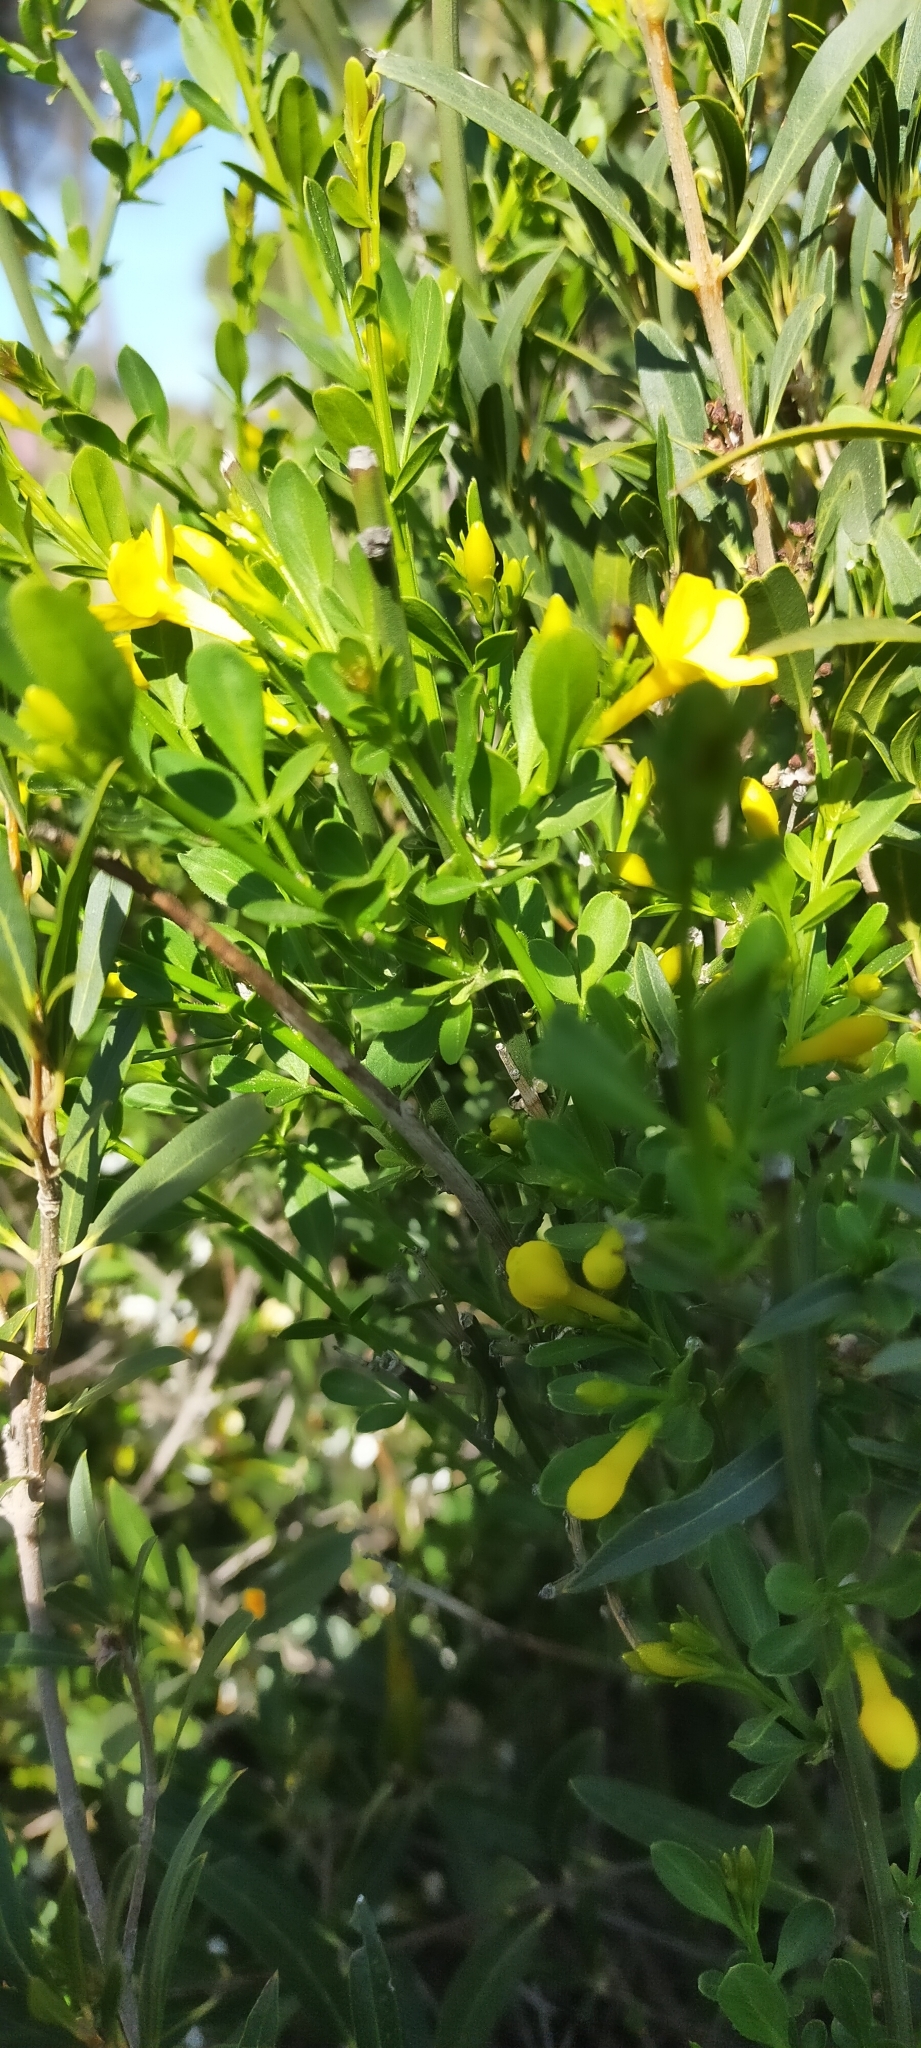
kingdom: Plantae
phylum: Tracheophyta
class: Magnoliopsida
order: Lamiales
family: Oleaceae
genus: Chrysojasminum
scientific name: Chrysojasminum fruticans
